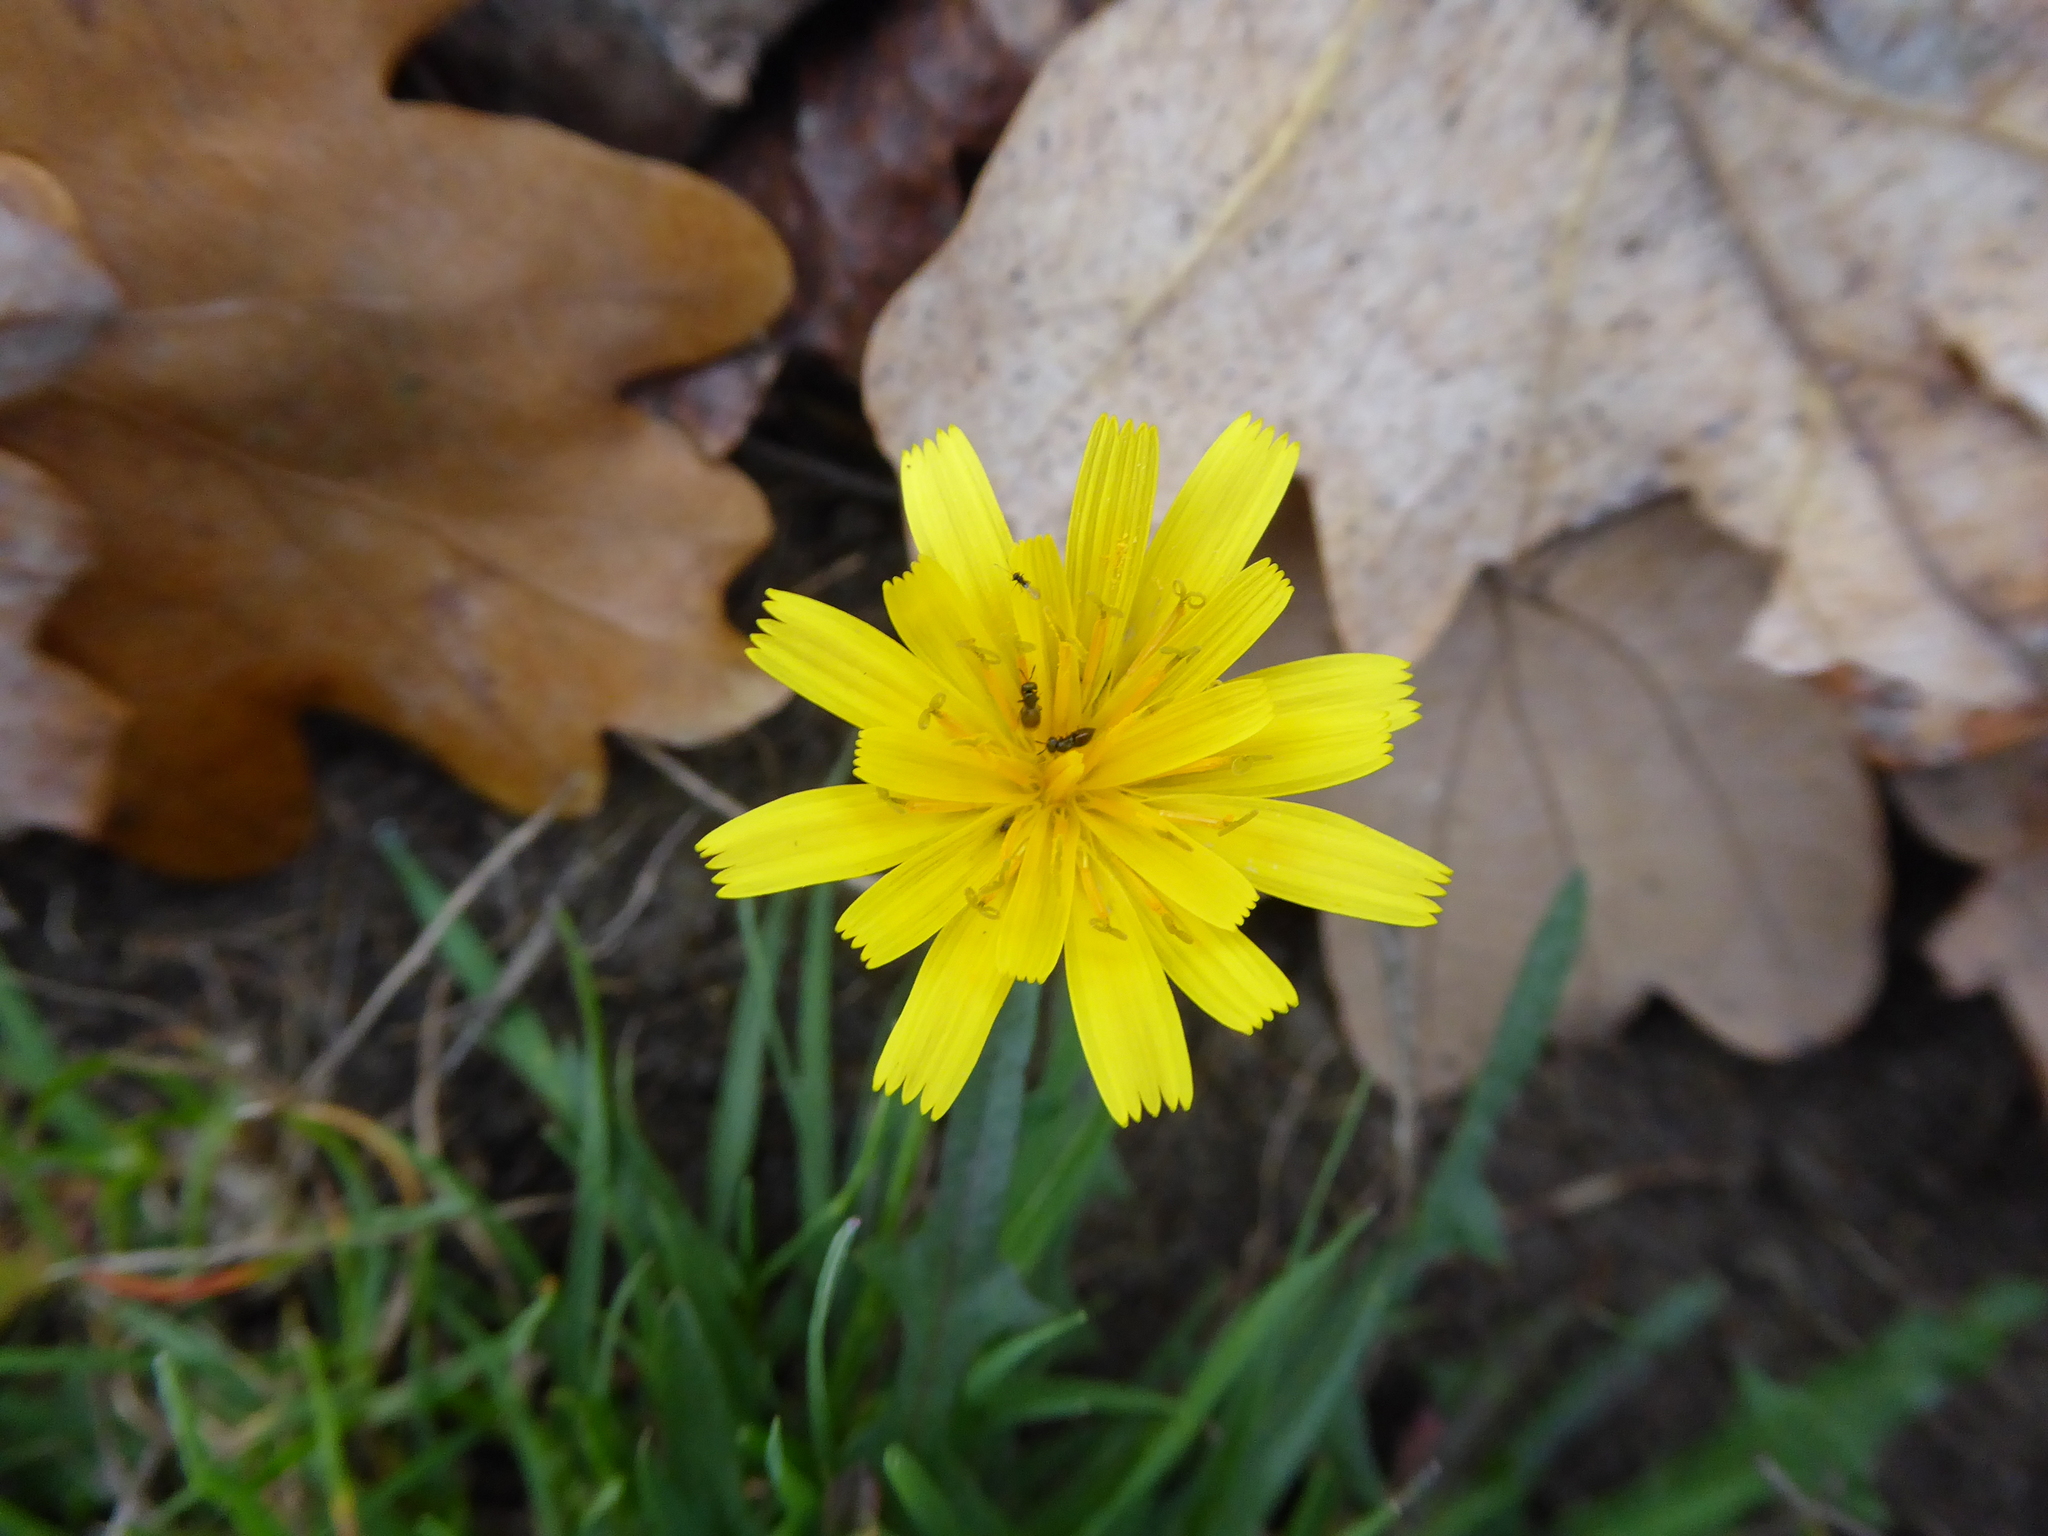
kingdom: Plantae
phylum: Tracheophyta
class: Magnoliopsida
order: Asterales
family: Asteraceae
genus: Scorzoneroides
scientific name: Scorzoneroides autumnalis
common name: Autumn hawkbit
